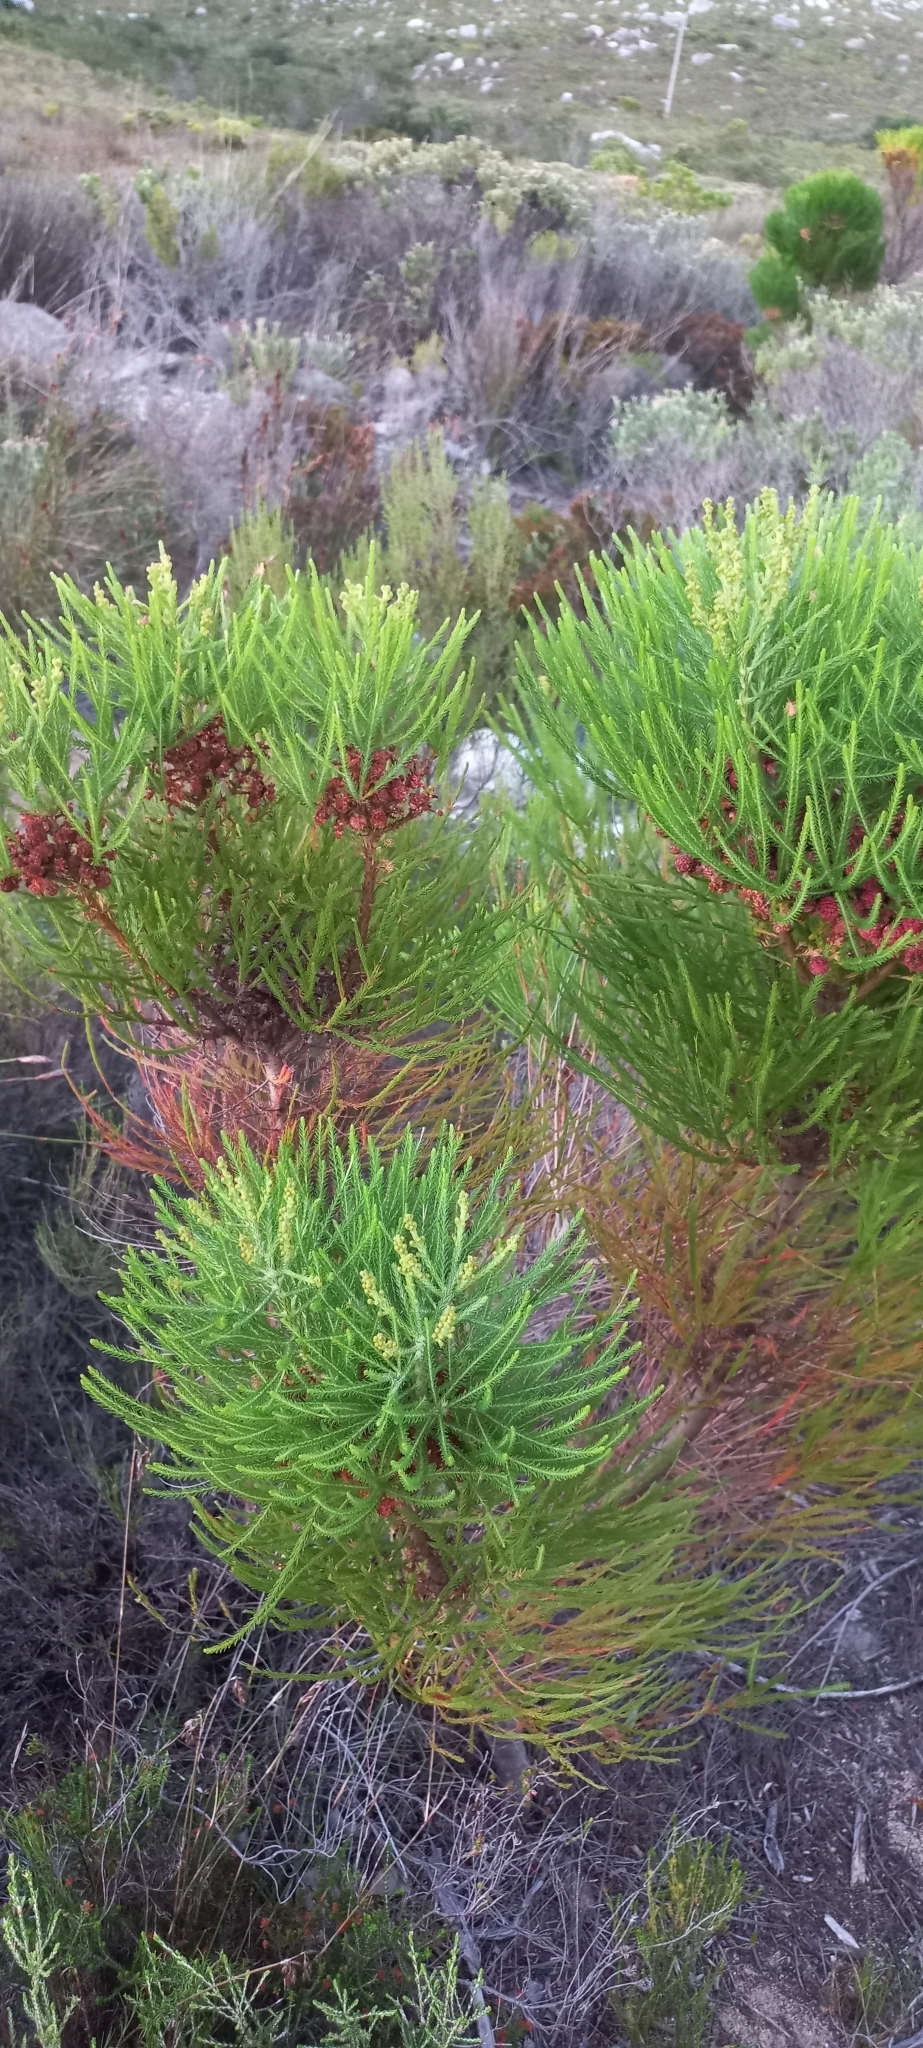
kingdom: Plantae
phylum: Tracheophyta
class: Magnoliopsida
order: Bruniales
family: Bruniaceae
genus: Berzelia
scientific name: Berzelia lanuginosa
